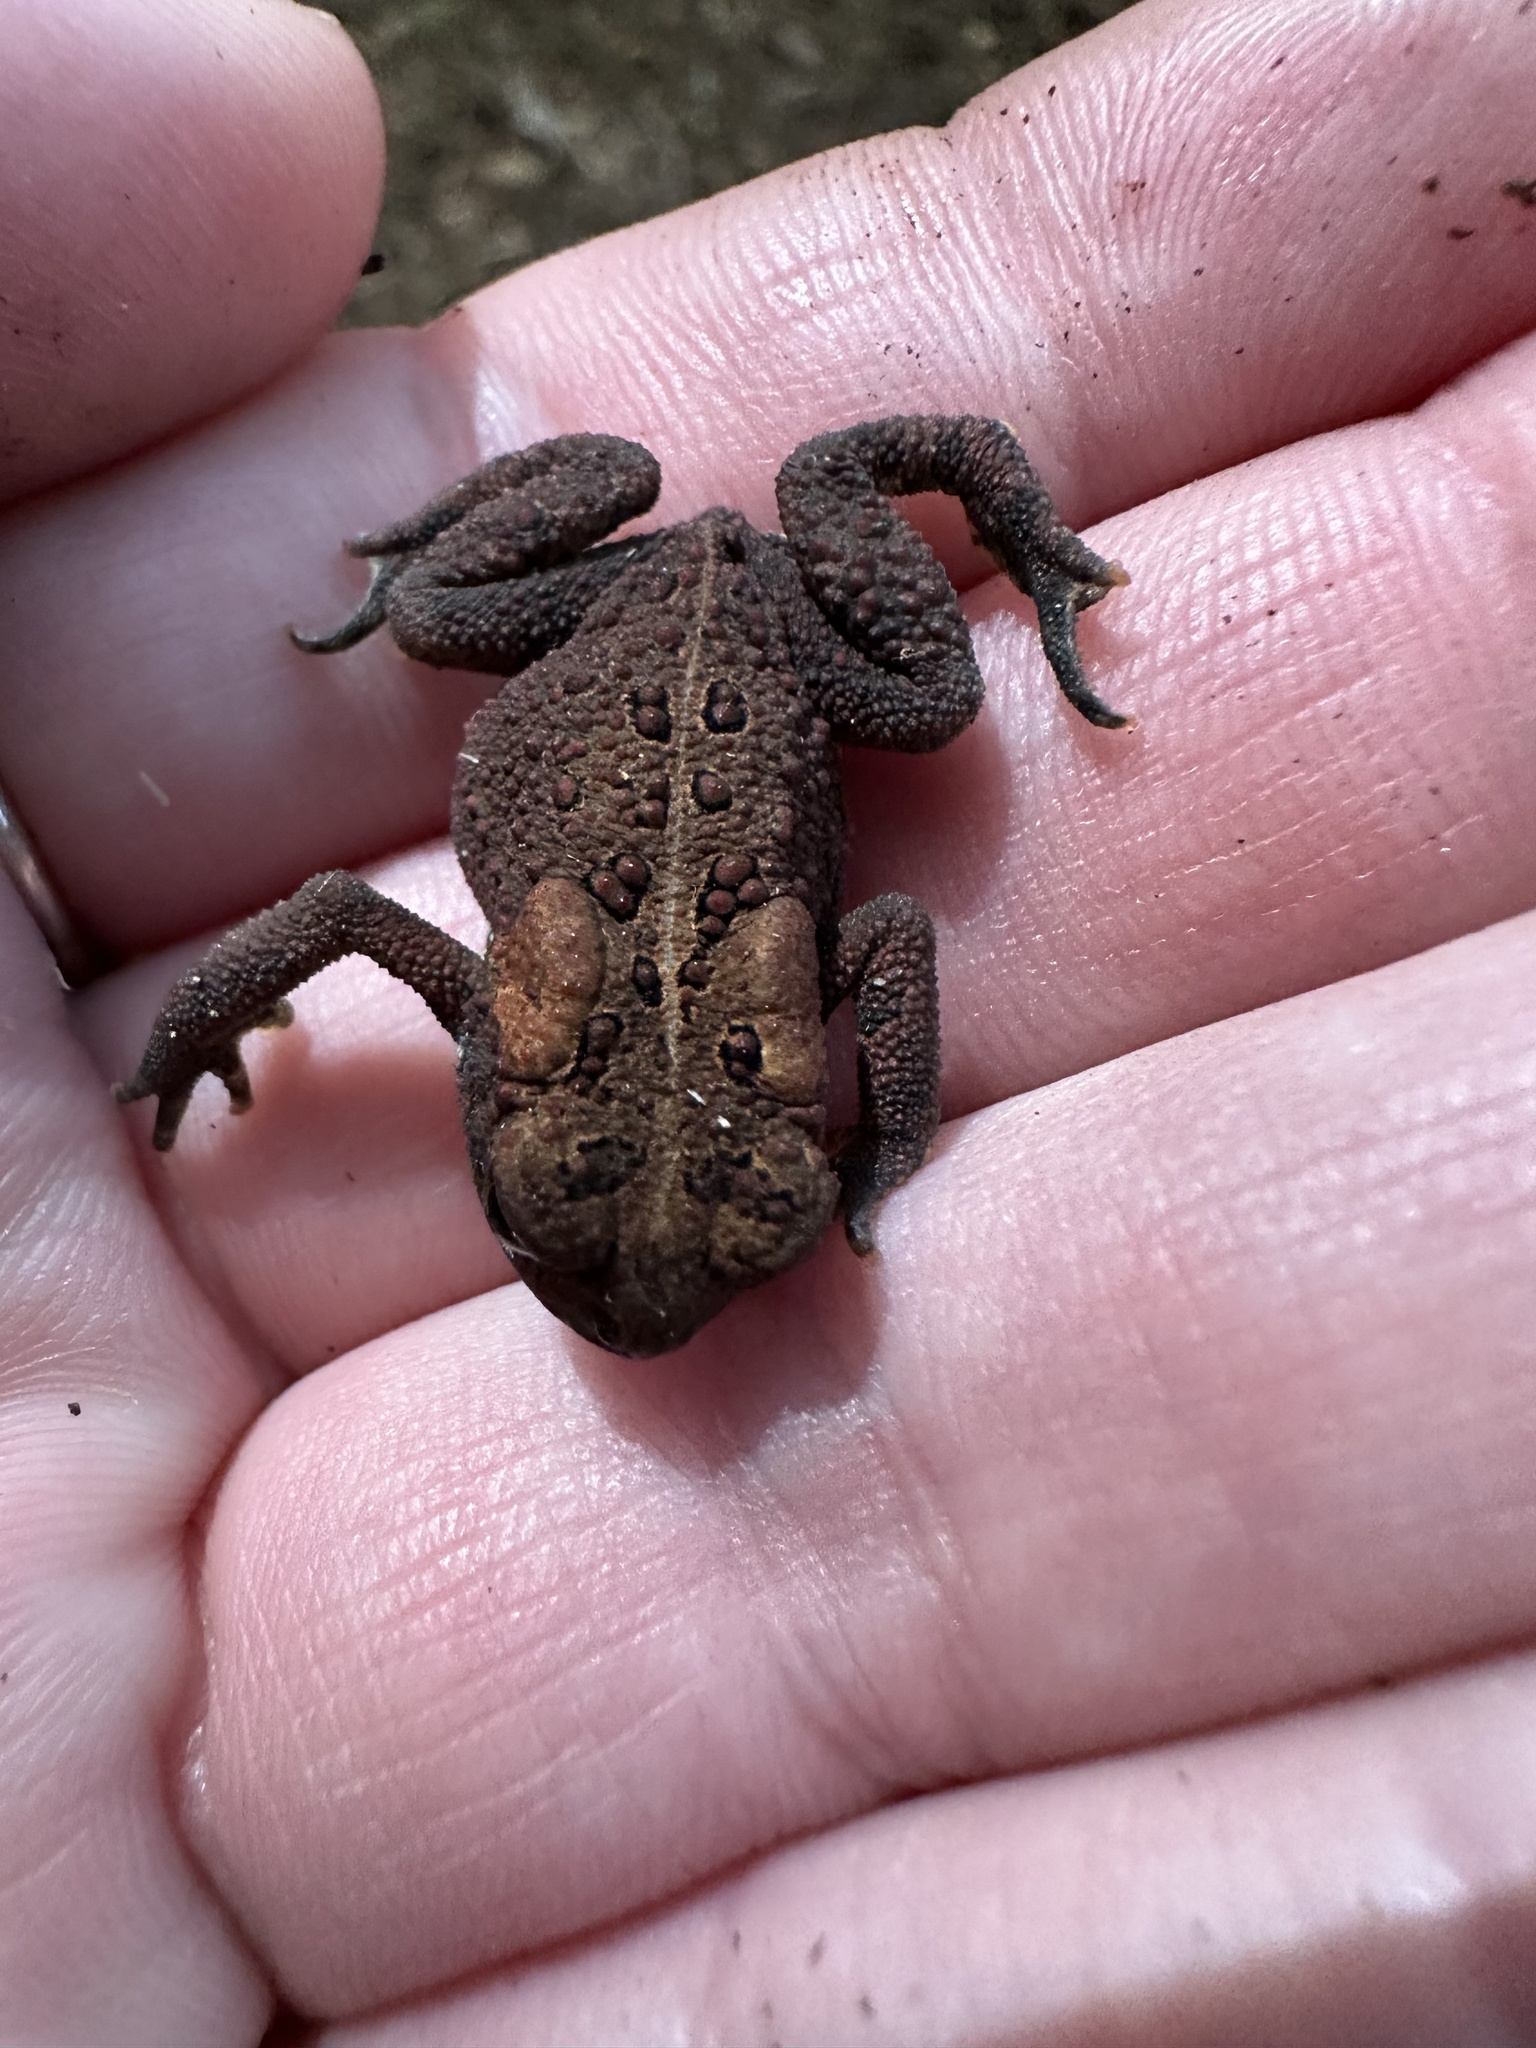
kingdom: Animalia
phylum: Chordata
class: Amphibia
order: Anura
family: Bufonidae
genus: Anaxyrus
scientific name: Anaxyrus americanus
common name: American toad
